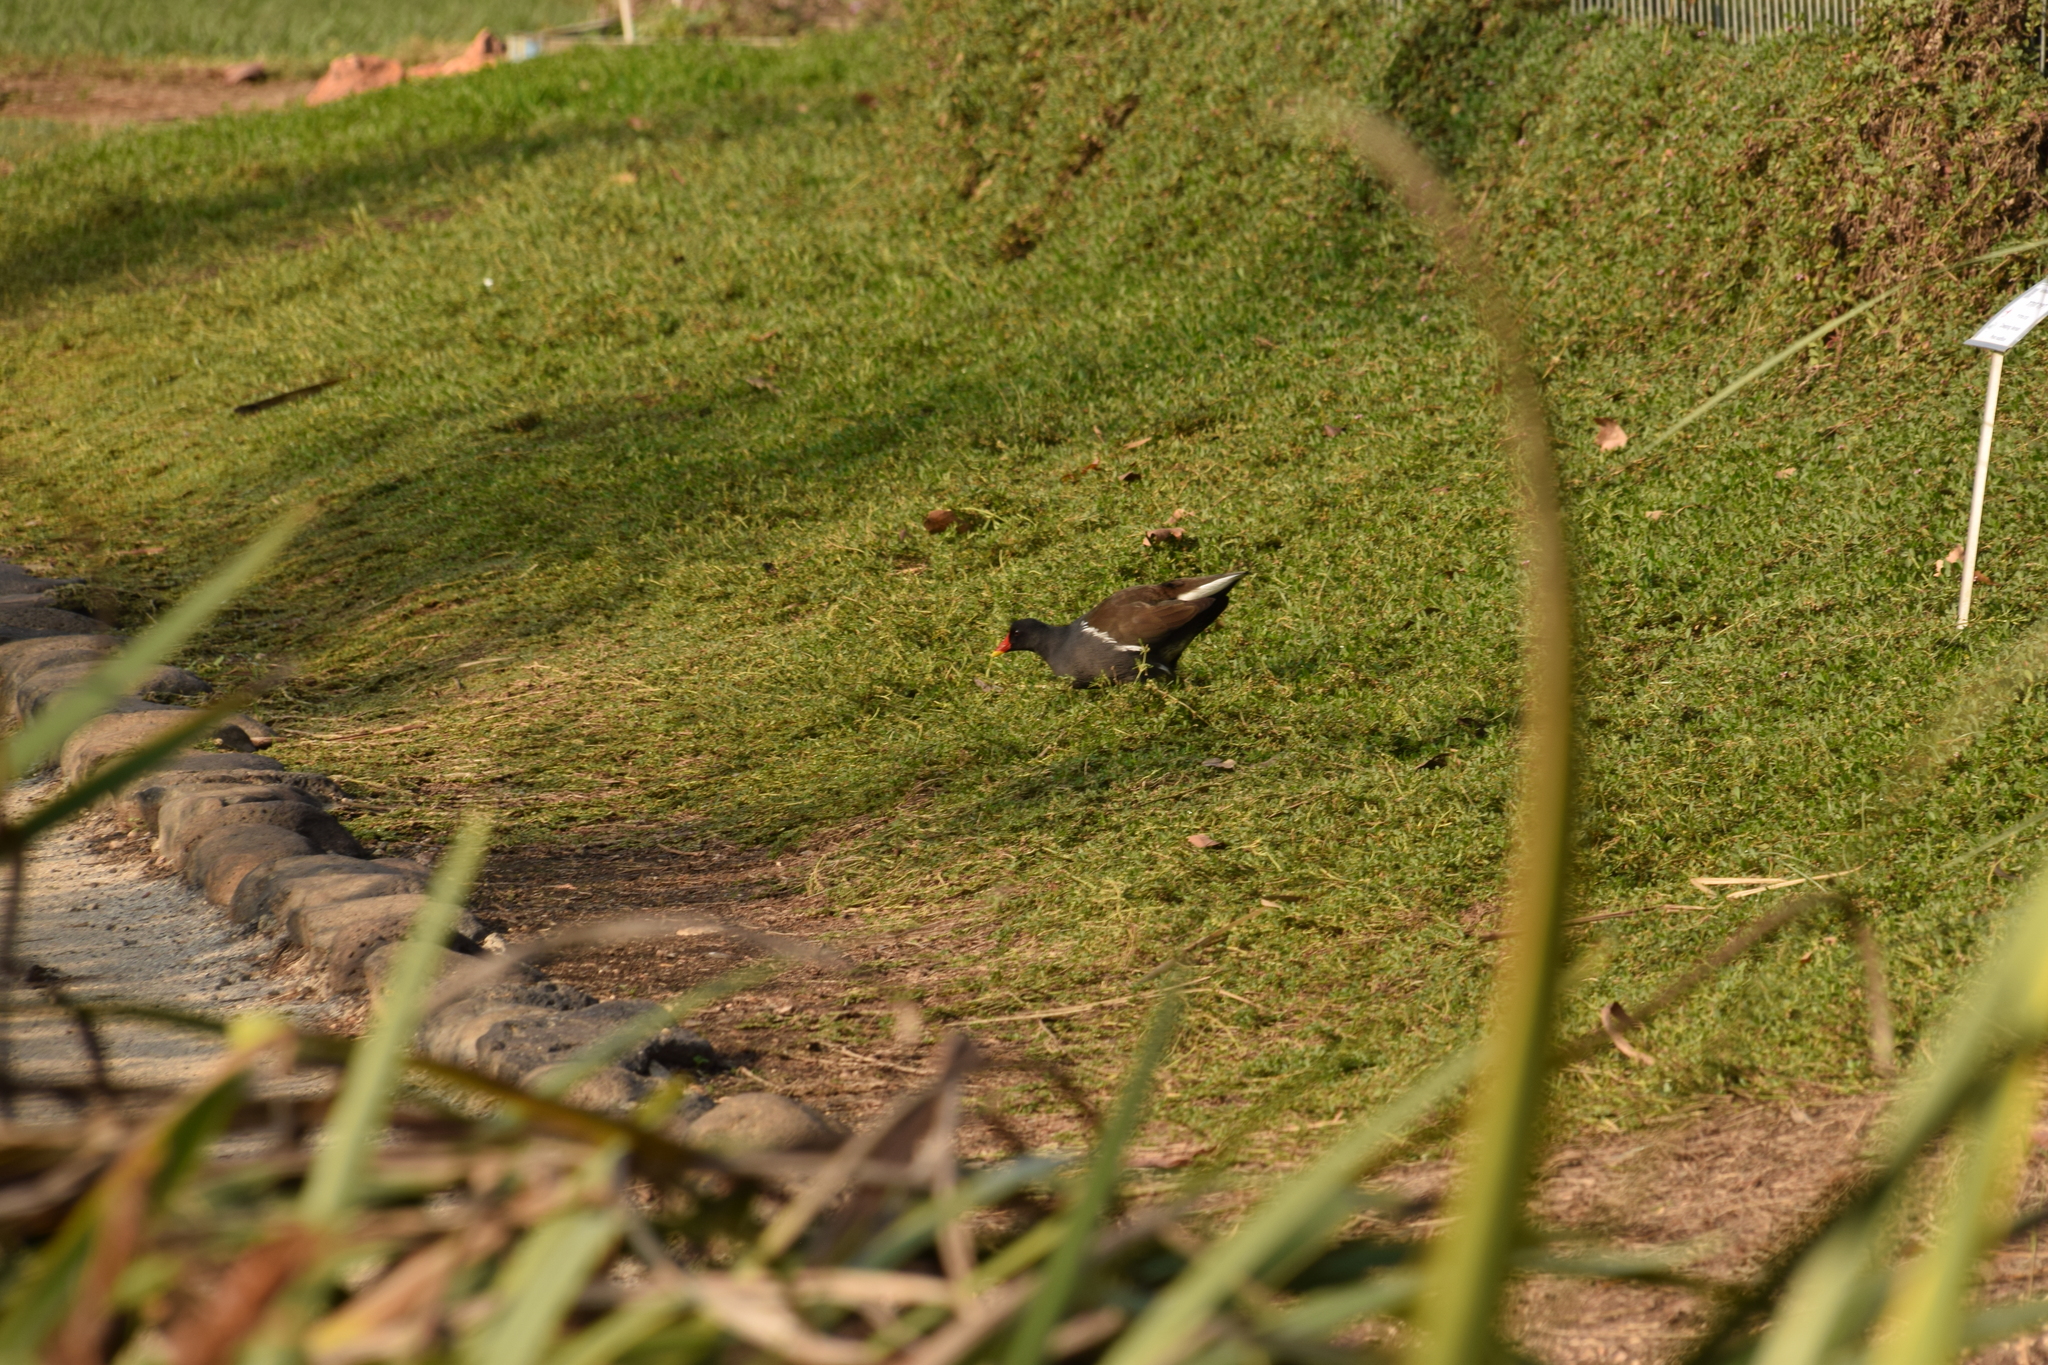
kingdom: Animalia
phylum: Chordata
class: Aves
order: Gruiformes
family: Rallidae
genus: Gallinula
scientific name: Gallinula chloropus
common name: Common moorhen
